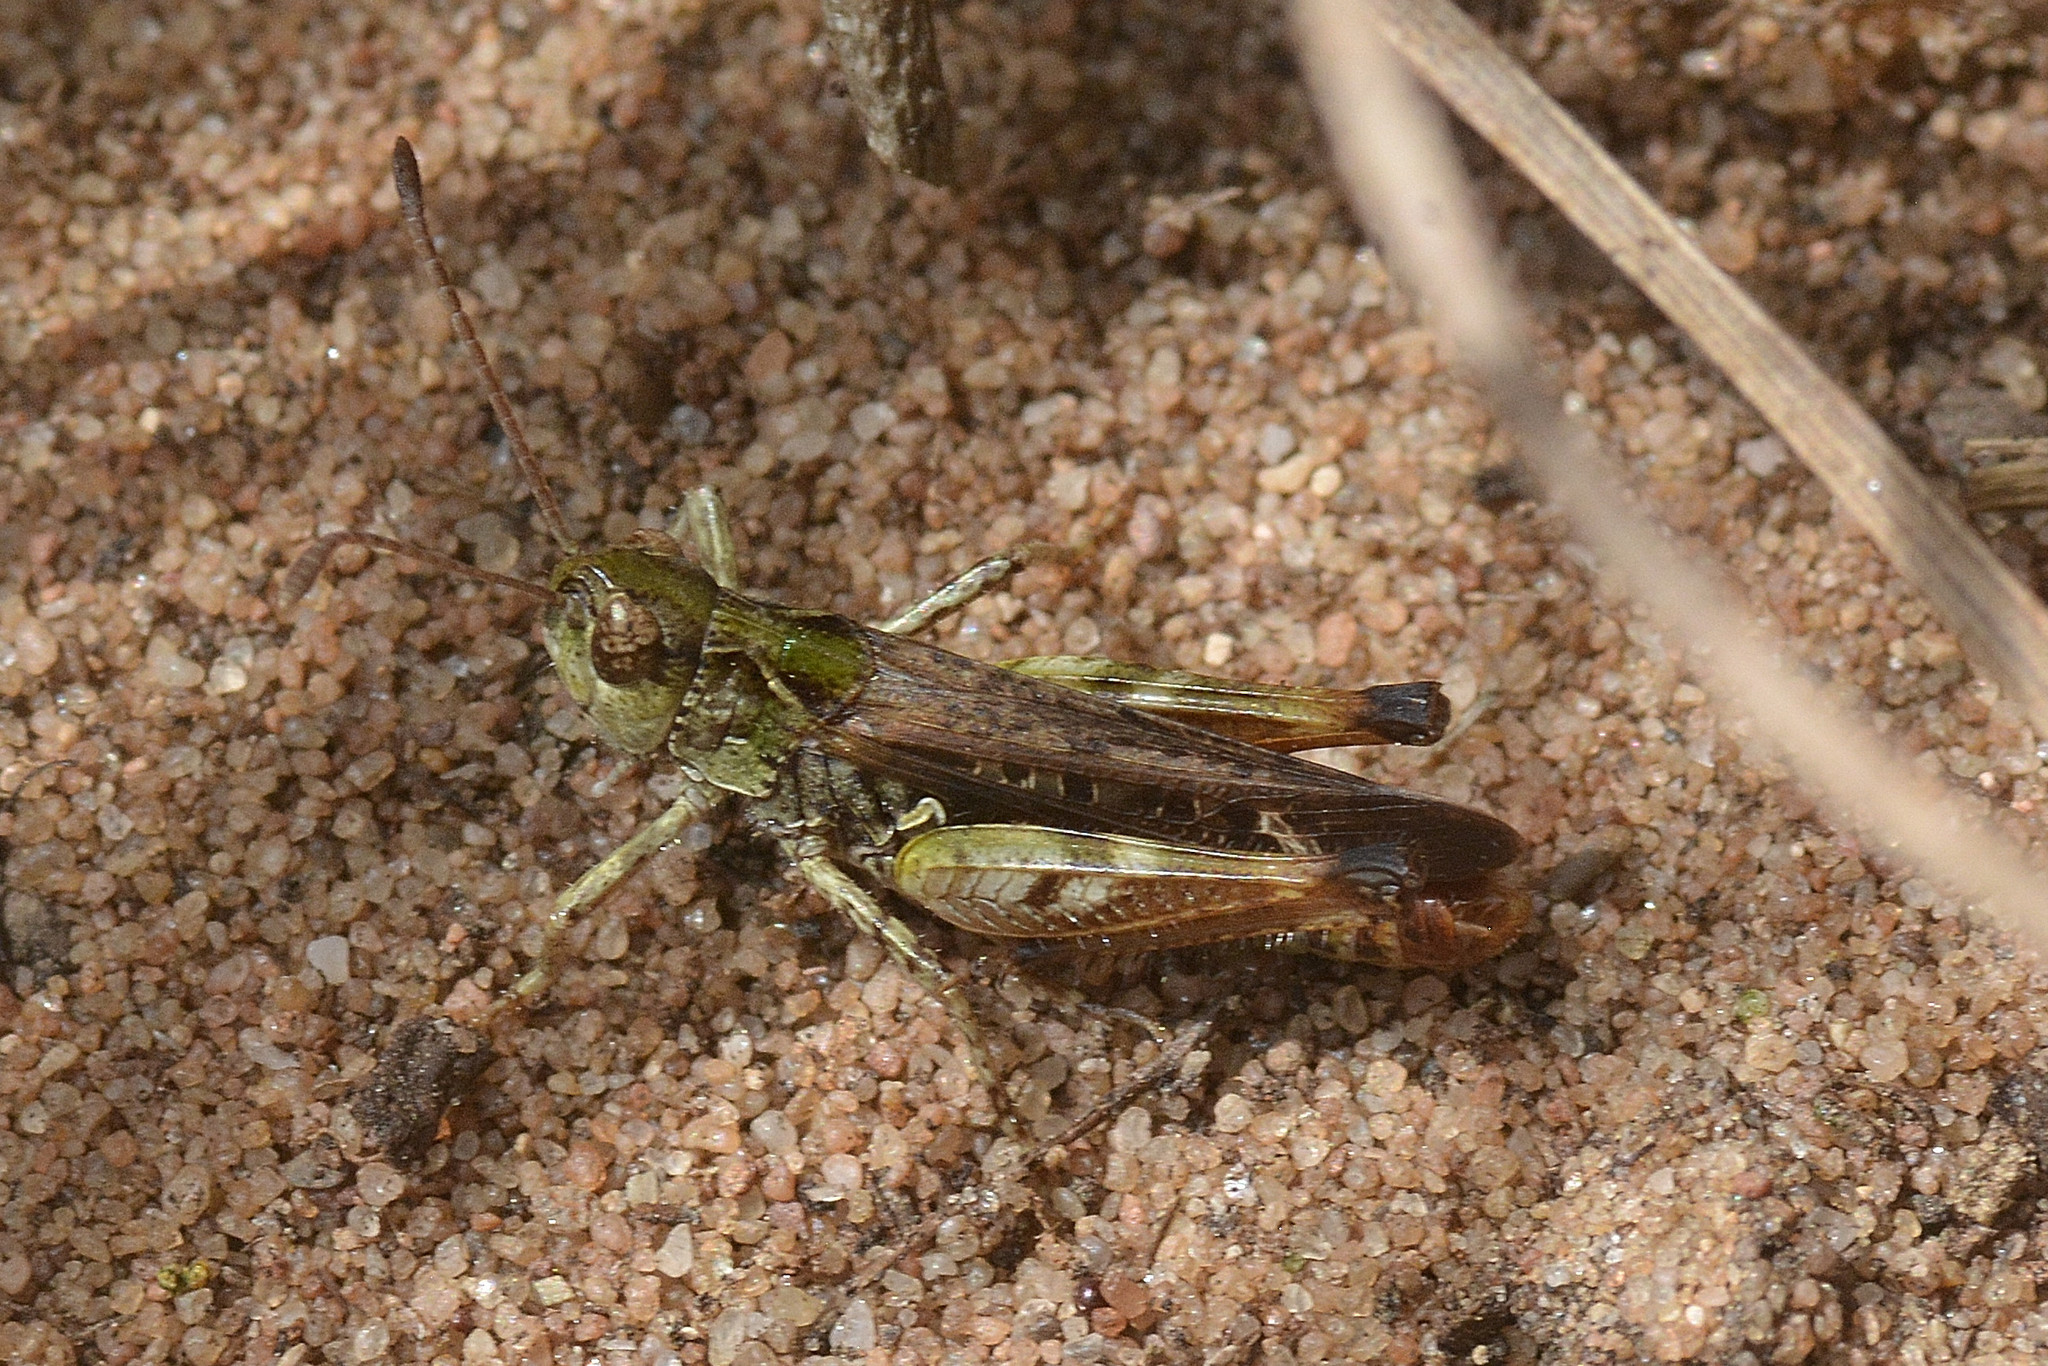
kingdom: Animalia
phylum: Arthropoda
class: Insecta
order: Orthoptera
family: Acrididae
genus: Myrmeleotettix
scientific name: Myrmeleotettix maculatus
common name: Mottled grasshopper
